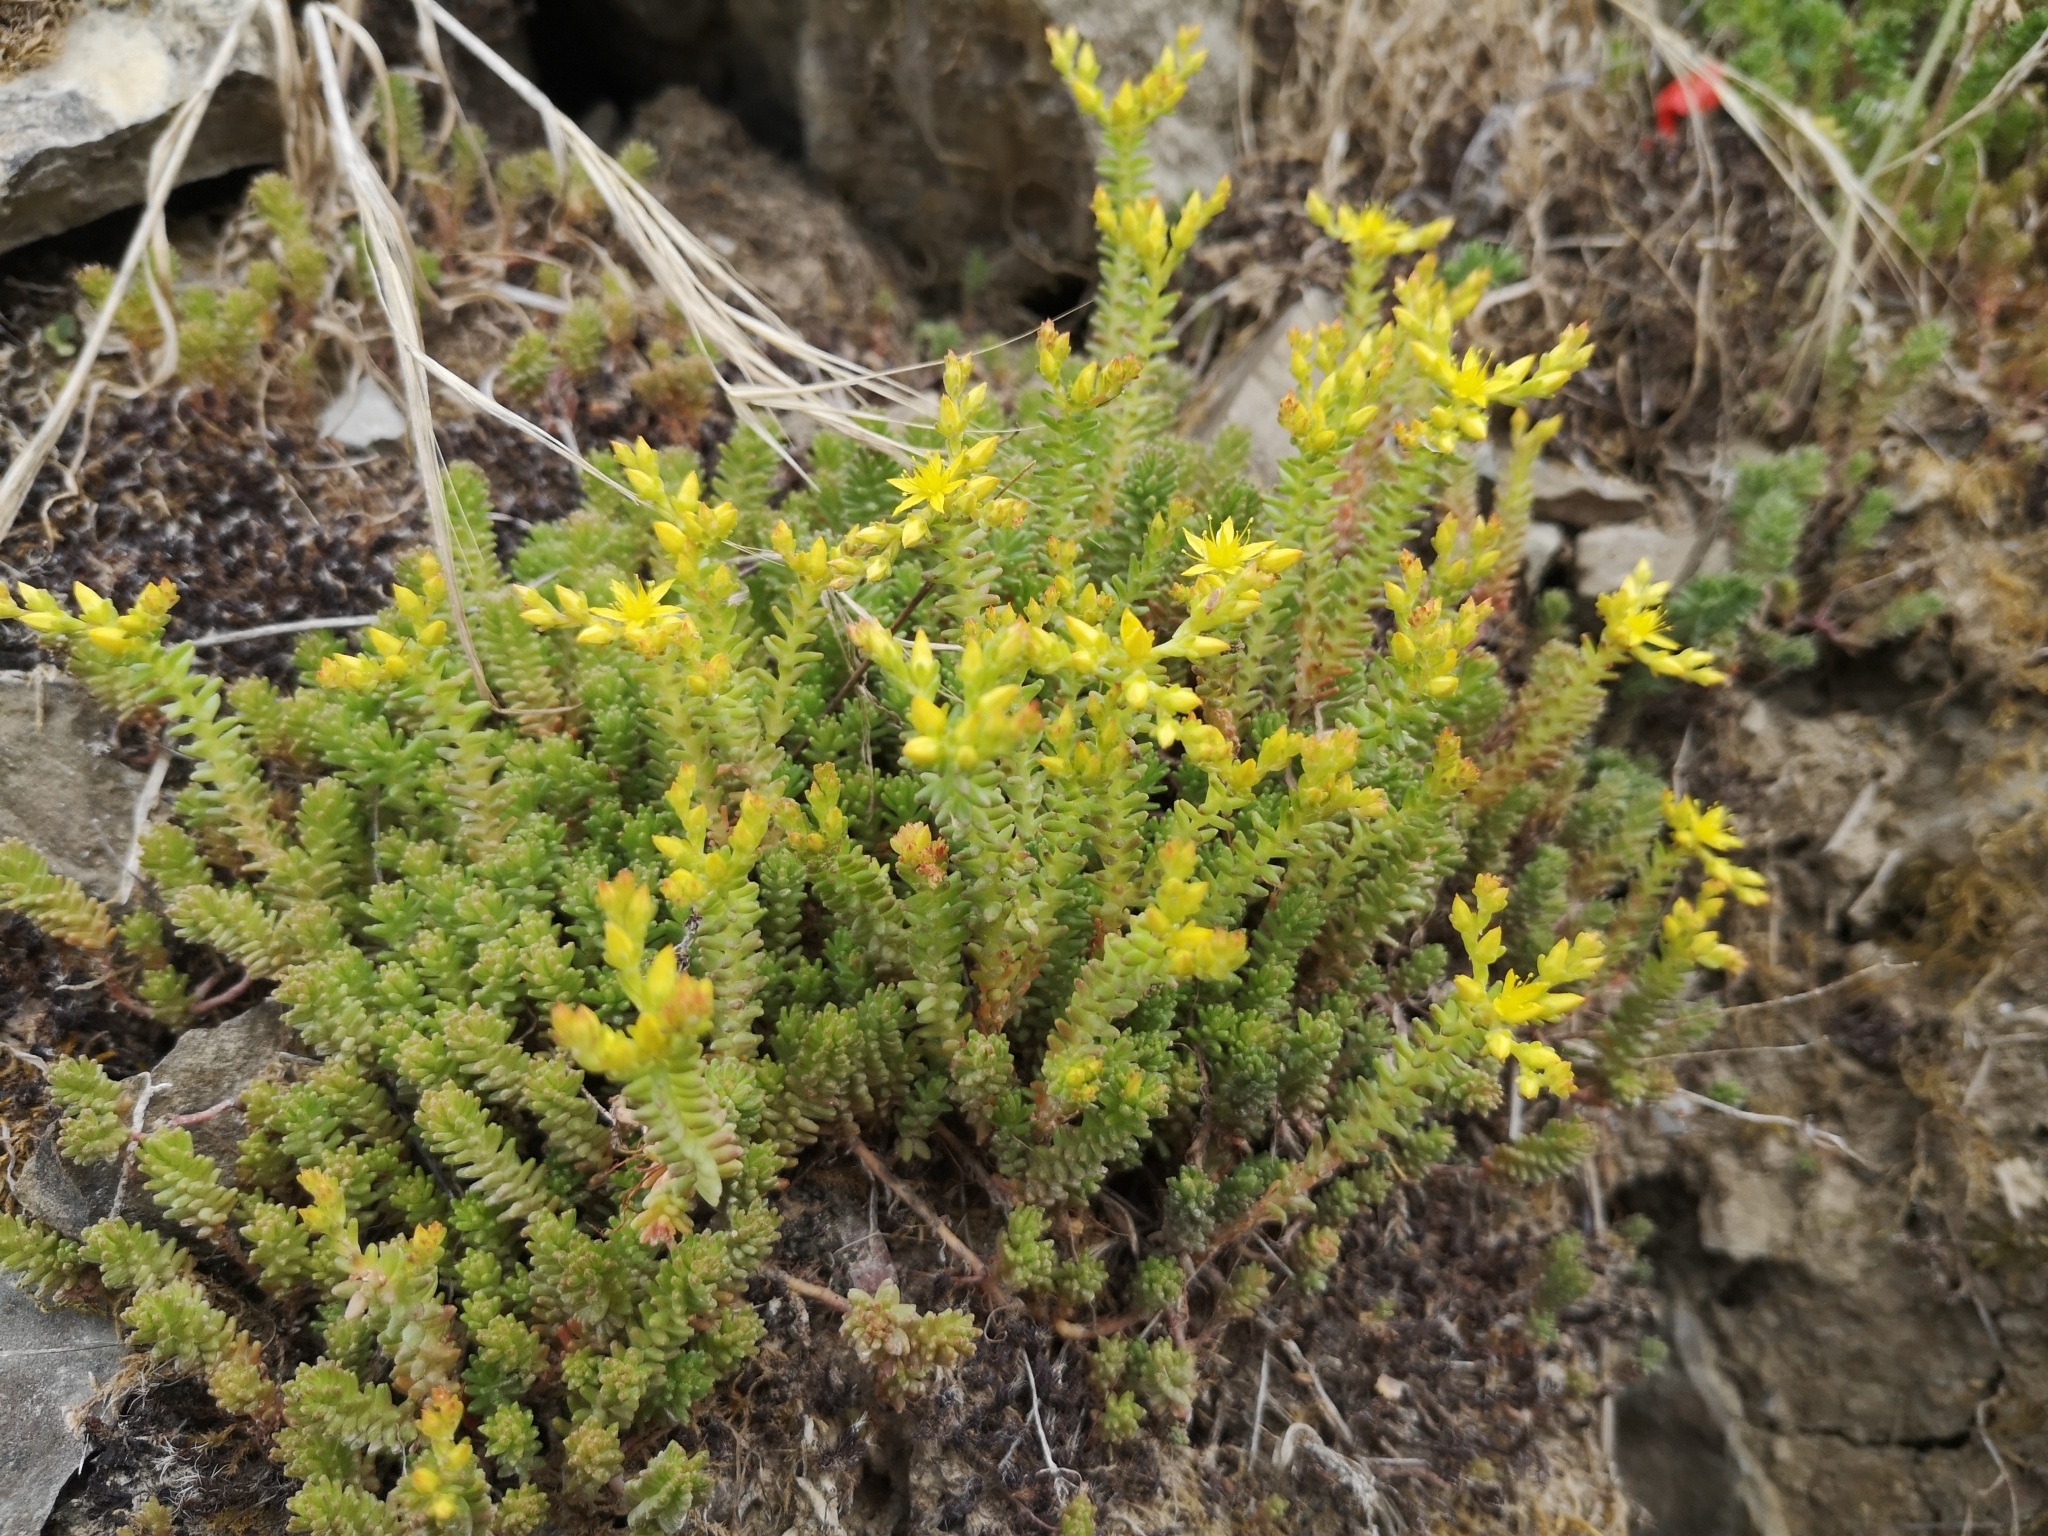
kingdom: Plantae
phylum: Tracheophyta
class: Magnoliopsida
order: Saxifragales
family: Crassulaceae
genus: Sedum
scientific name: Sedum sexangulare
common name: Tasteless stonecrop
